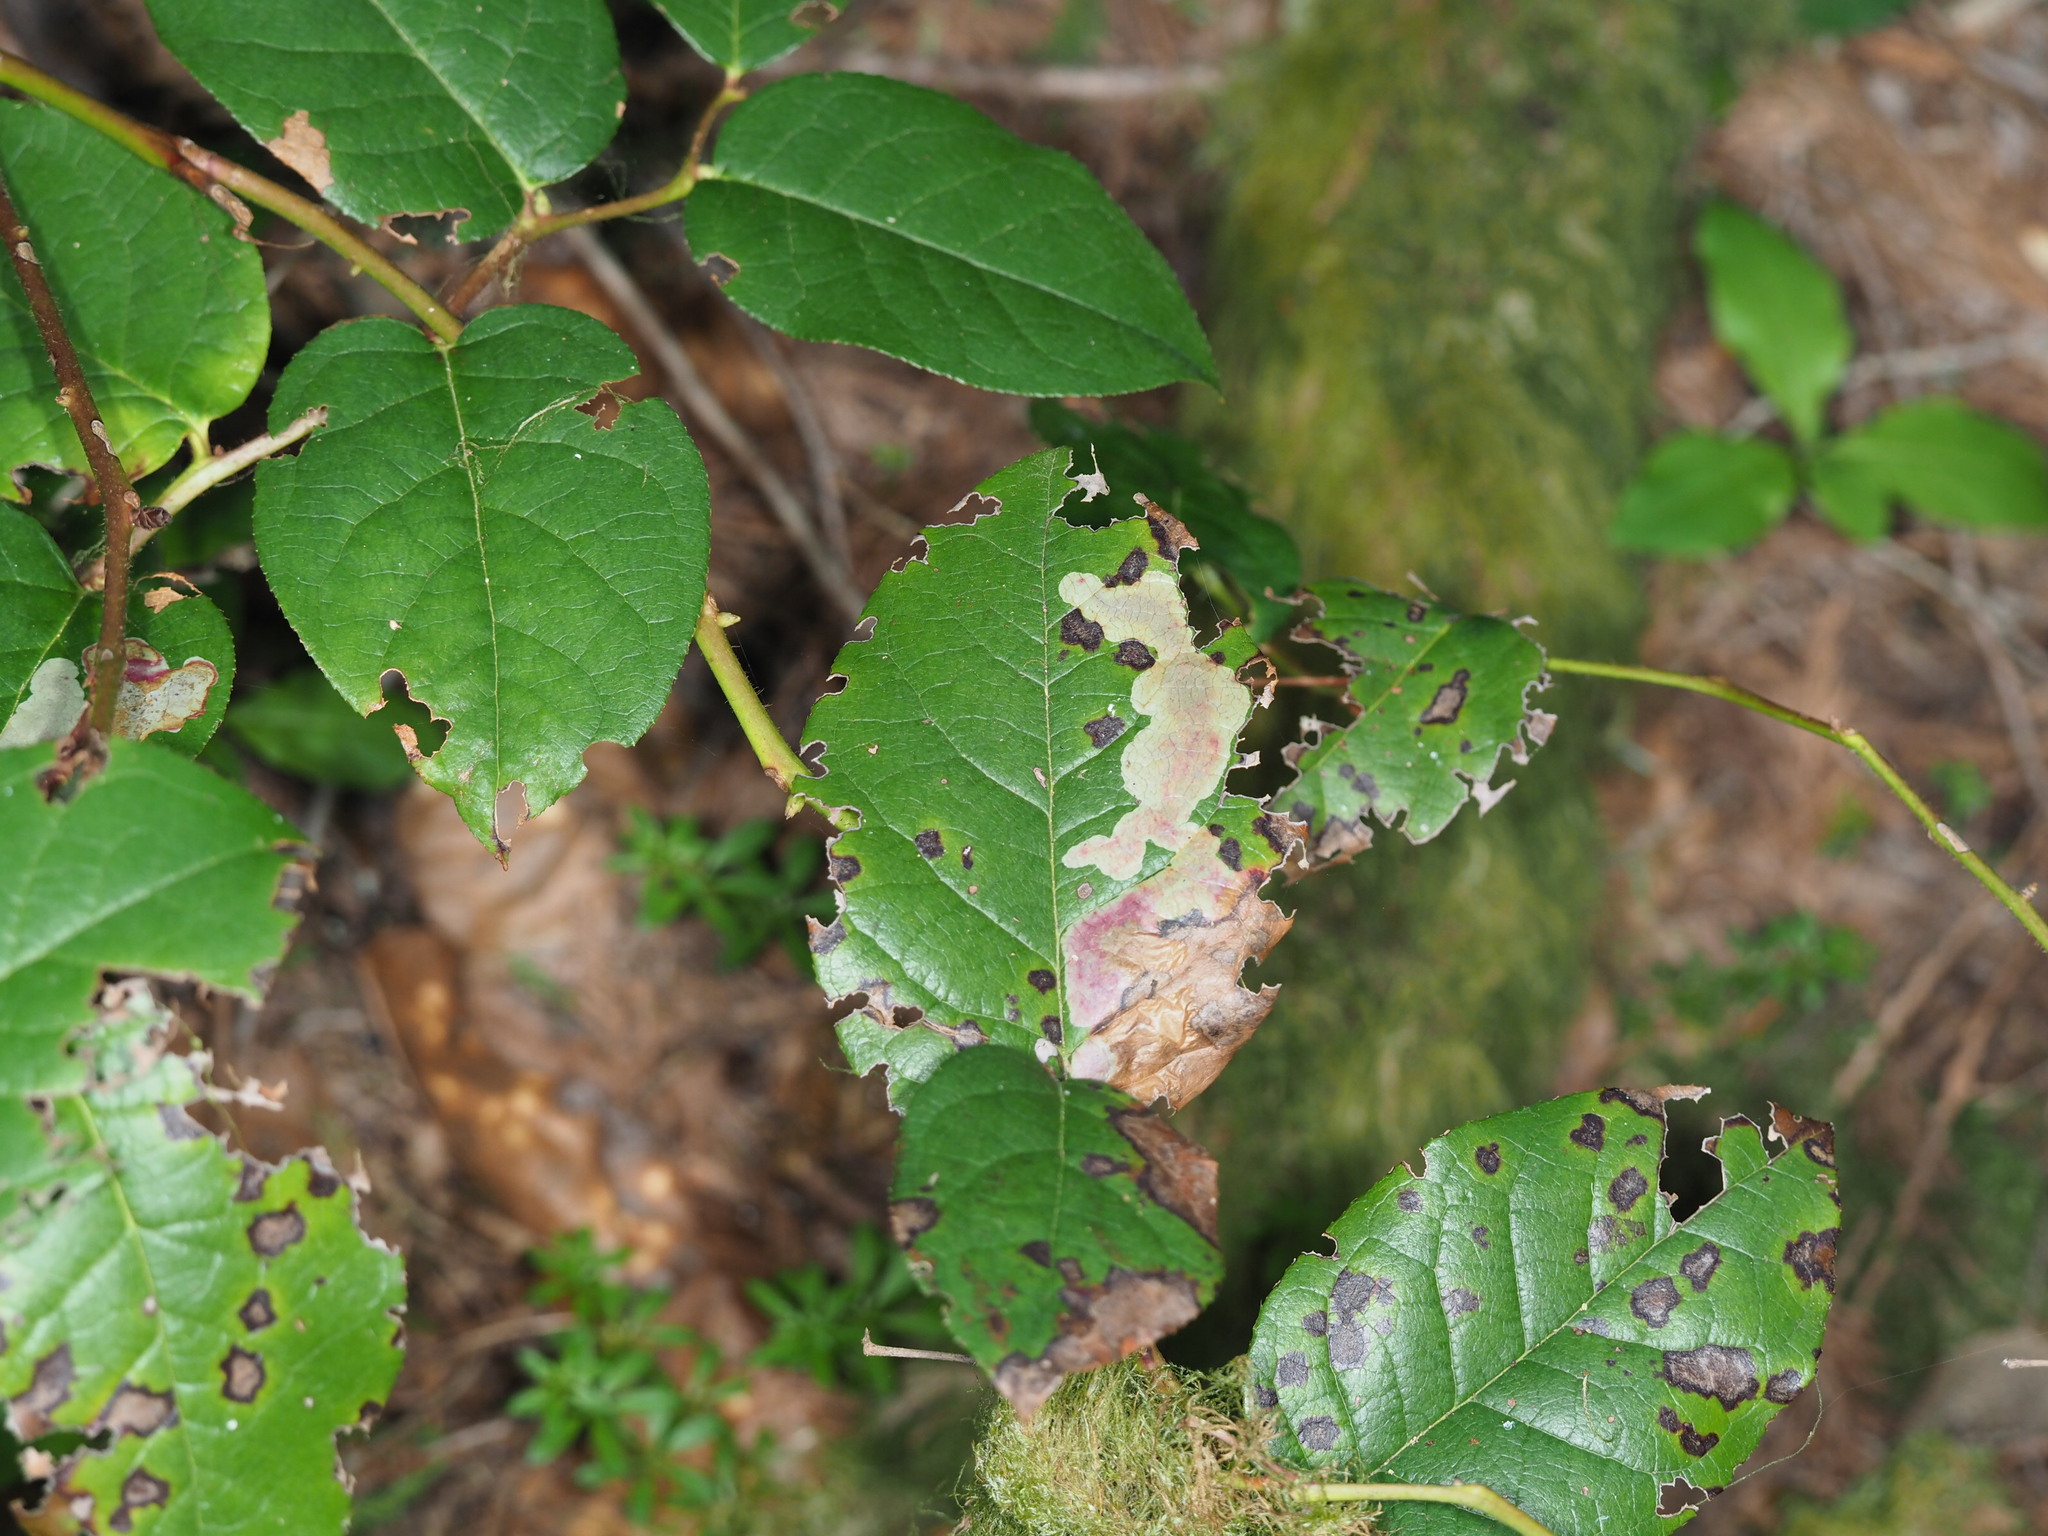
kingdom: Plantae
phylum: Tracheophyta
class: Magnoliopsida
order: Ericales
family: Ericaceae
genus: Gaultheria
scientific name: Gaultheria shallon
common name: Shallon
